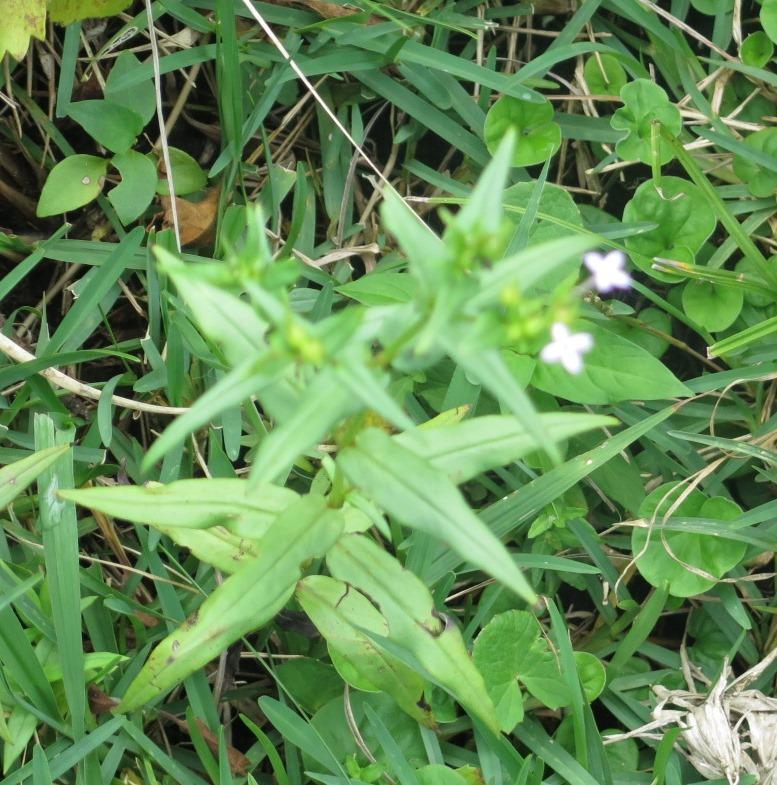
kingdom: Plantae
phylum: Tracheophyta
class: Magnoliopsida
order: Gentianales
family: Rubiaceae
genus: Conostomium
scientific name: Conostomium natalense
